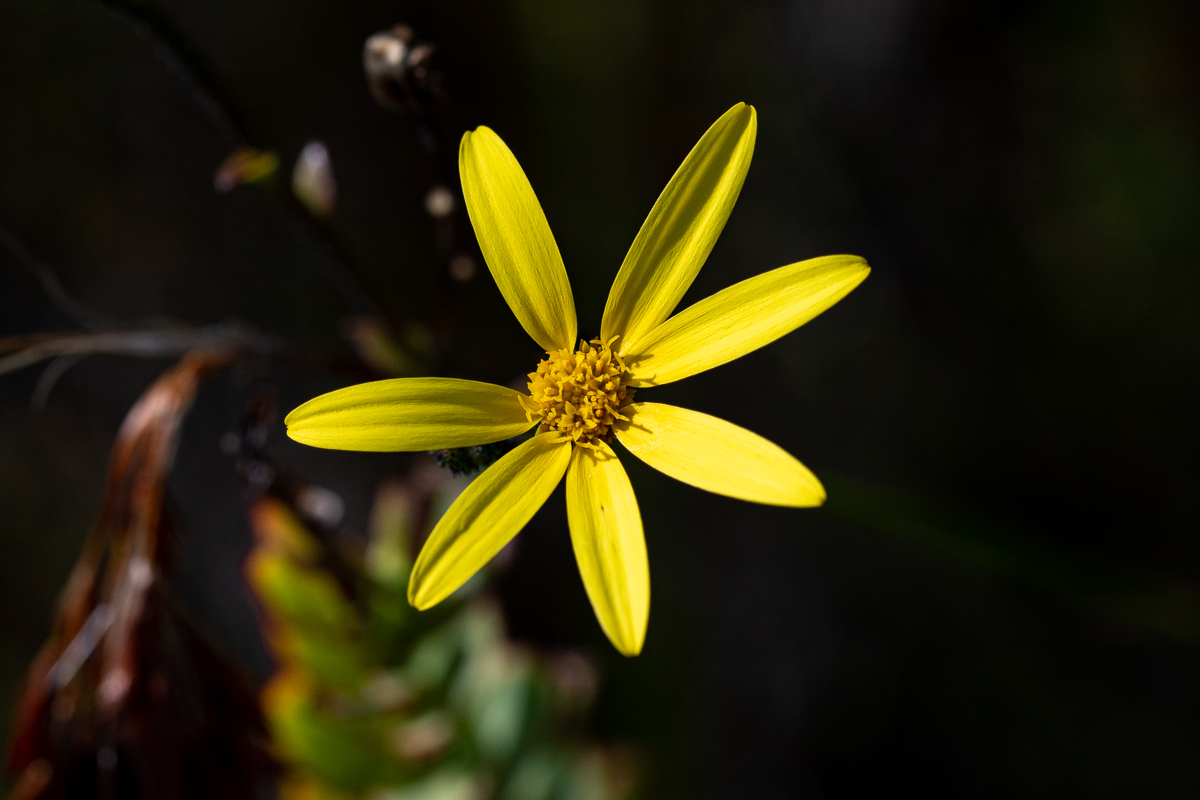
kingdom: Plantae
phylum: Tracheophyta
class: Magnoliopsida
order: Asterales
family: Asteraceae
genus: Osteospermum
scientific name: Osteospermum rotundifolium
